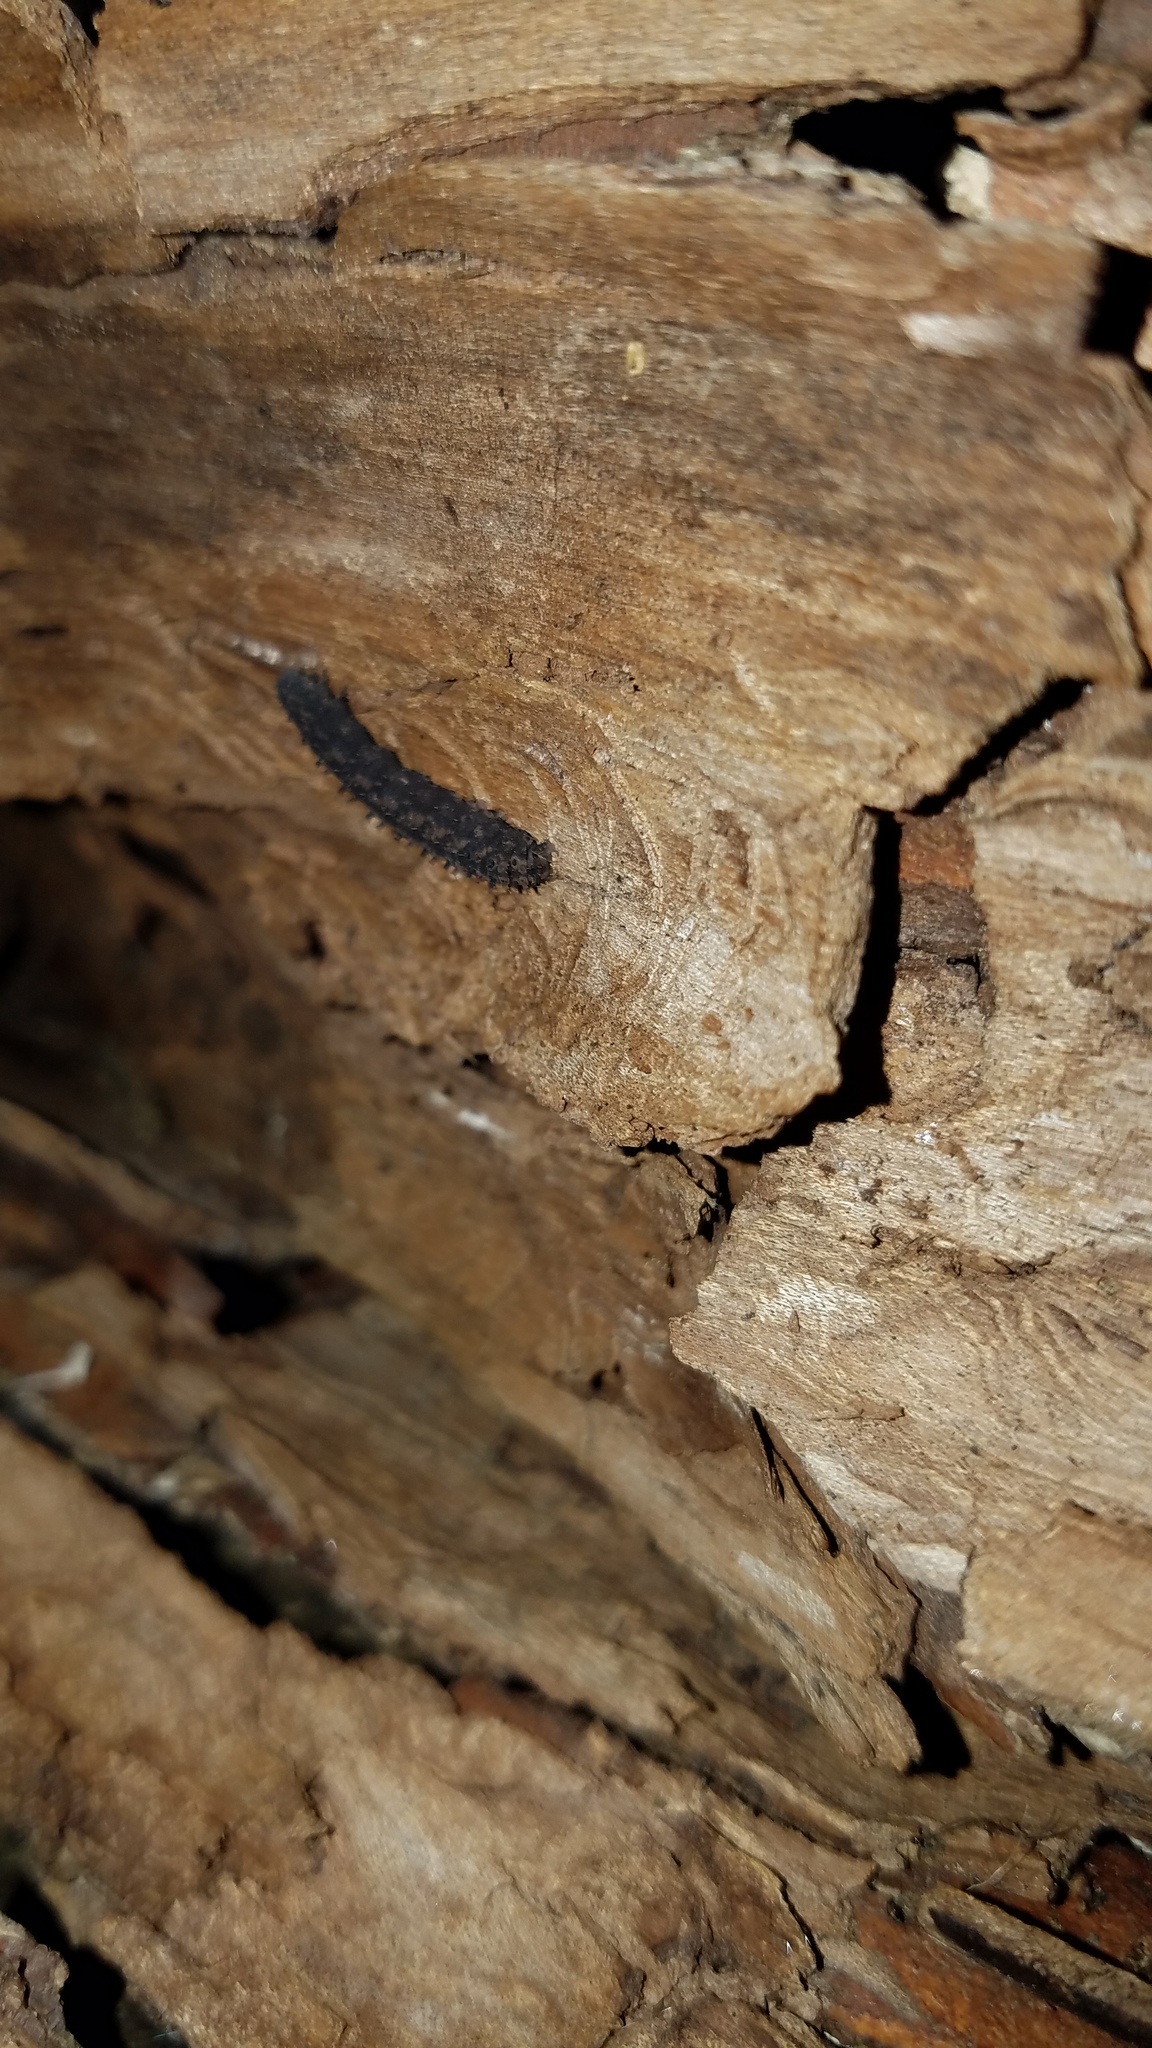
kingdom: Animalia
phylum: Arthropoda
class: Insecta
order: Lepidoptera
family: Erebidae
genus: Idia
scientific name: Idia lubricalis
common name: Twin-striped tabby
